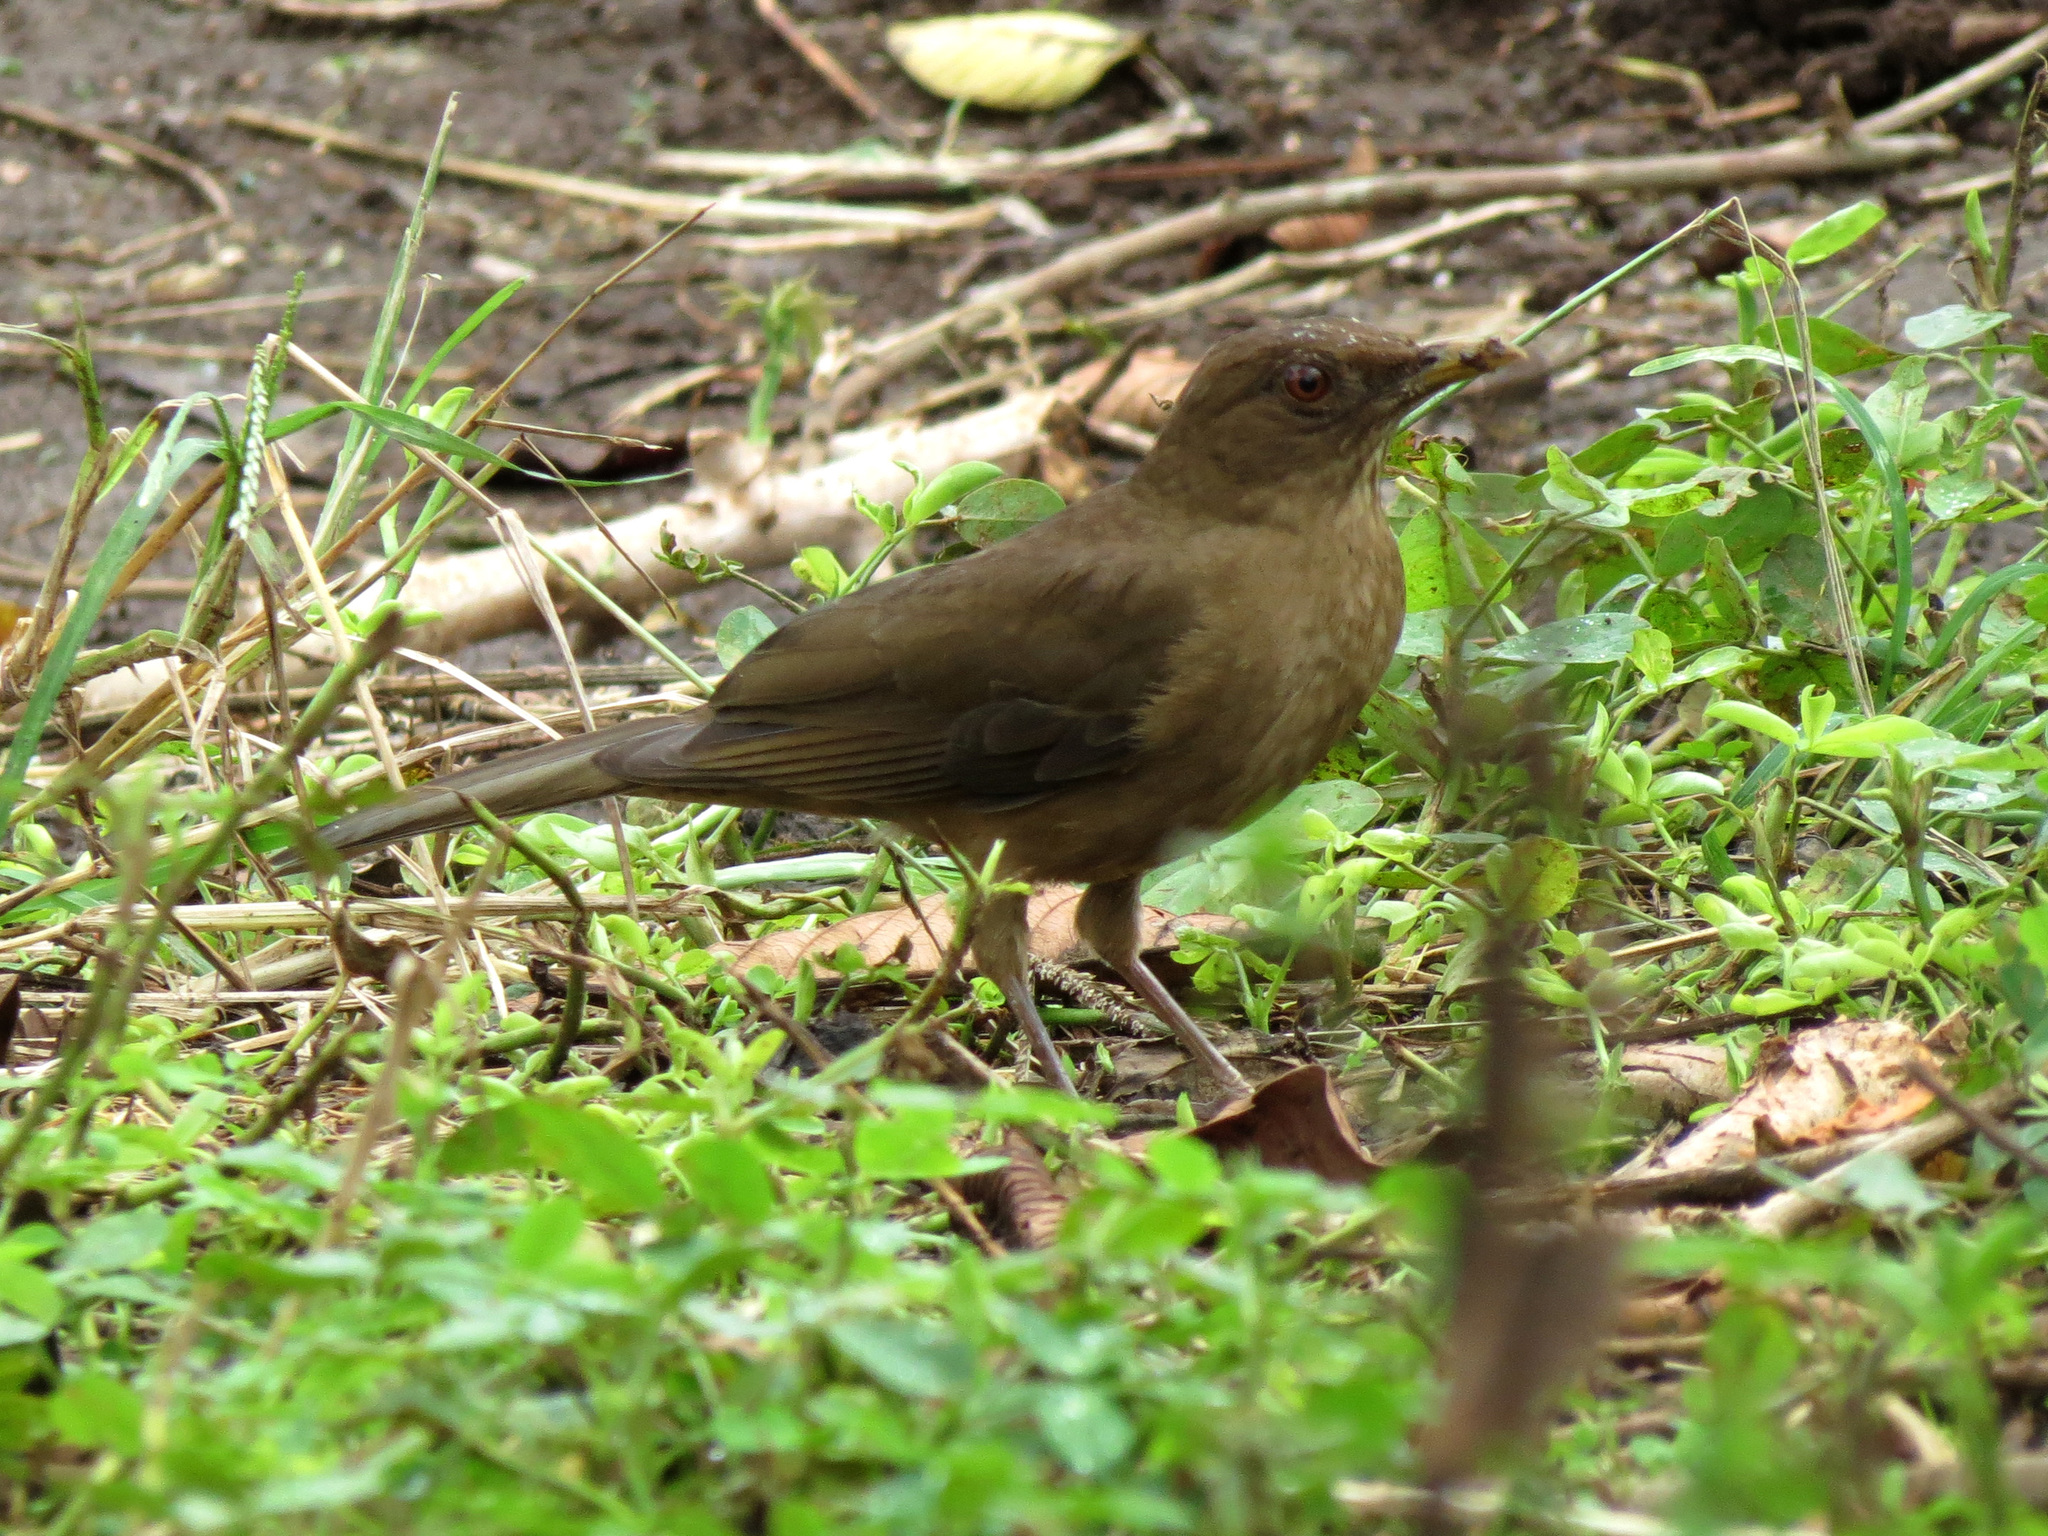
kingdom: Animalia
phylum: Chordata
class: Aves
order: Passeriformes
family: Turdidae
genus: Turdus
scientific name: Turdus grayi
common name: Clay-colored thrush
